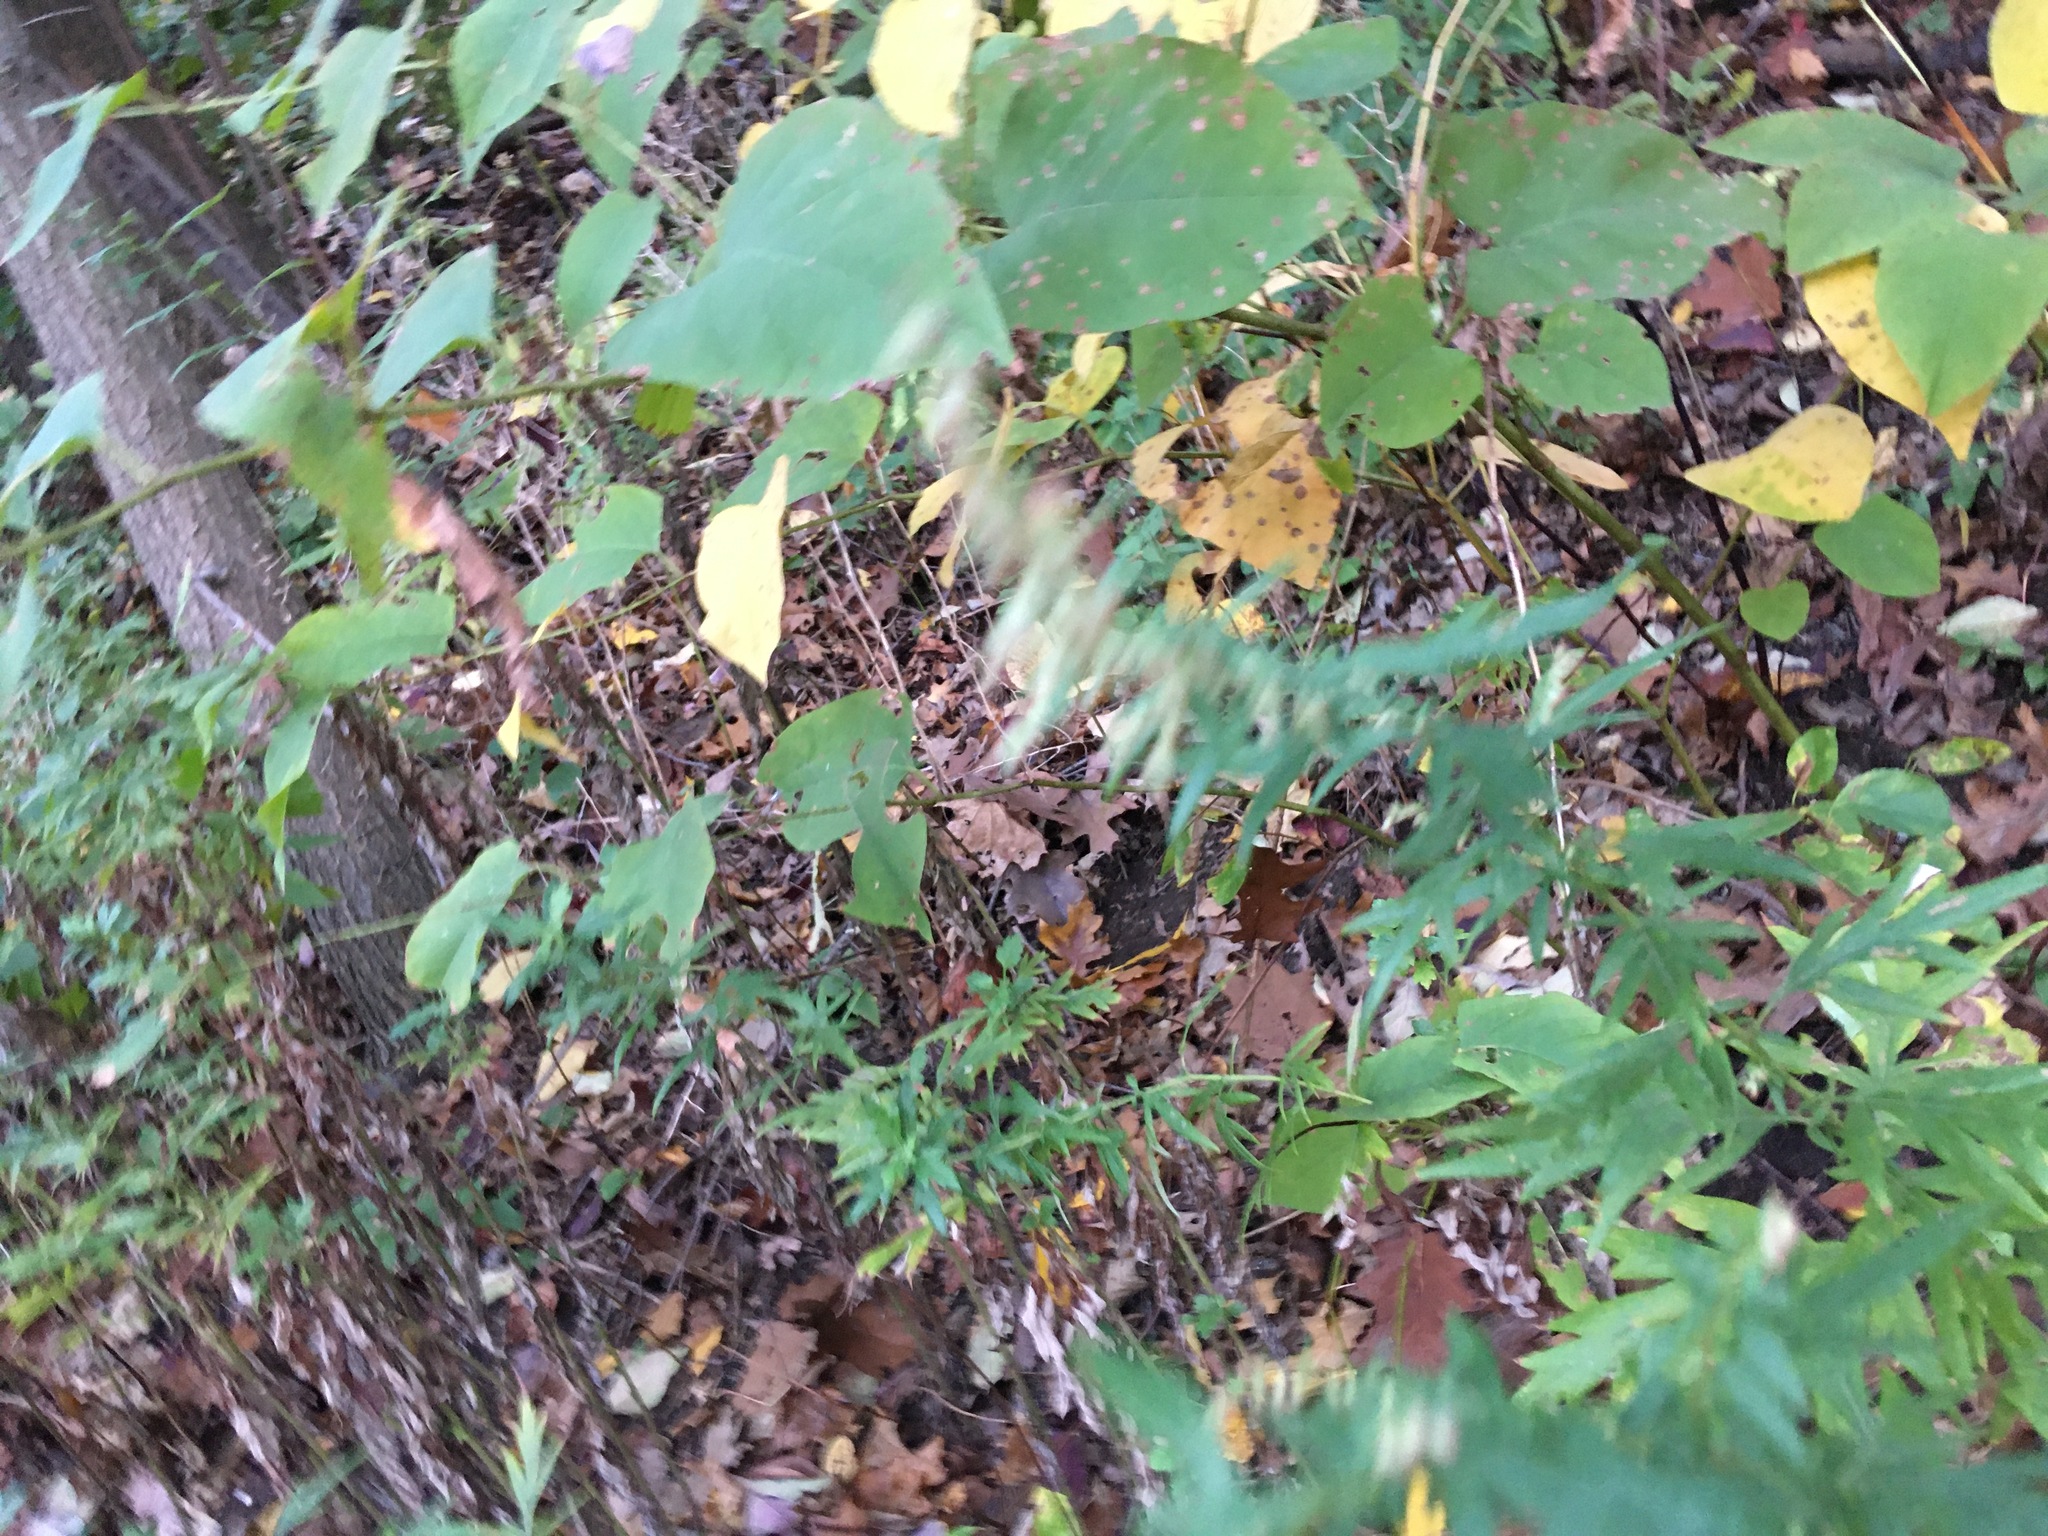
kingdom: Plantae
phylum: Tracheophyta
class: Magnoliopsida
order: Asterales
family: Asteraceae
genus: Artemisia
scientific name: Artemisia vulgaris
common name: Mugwort
